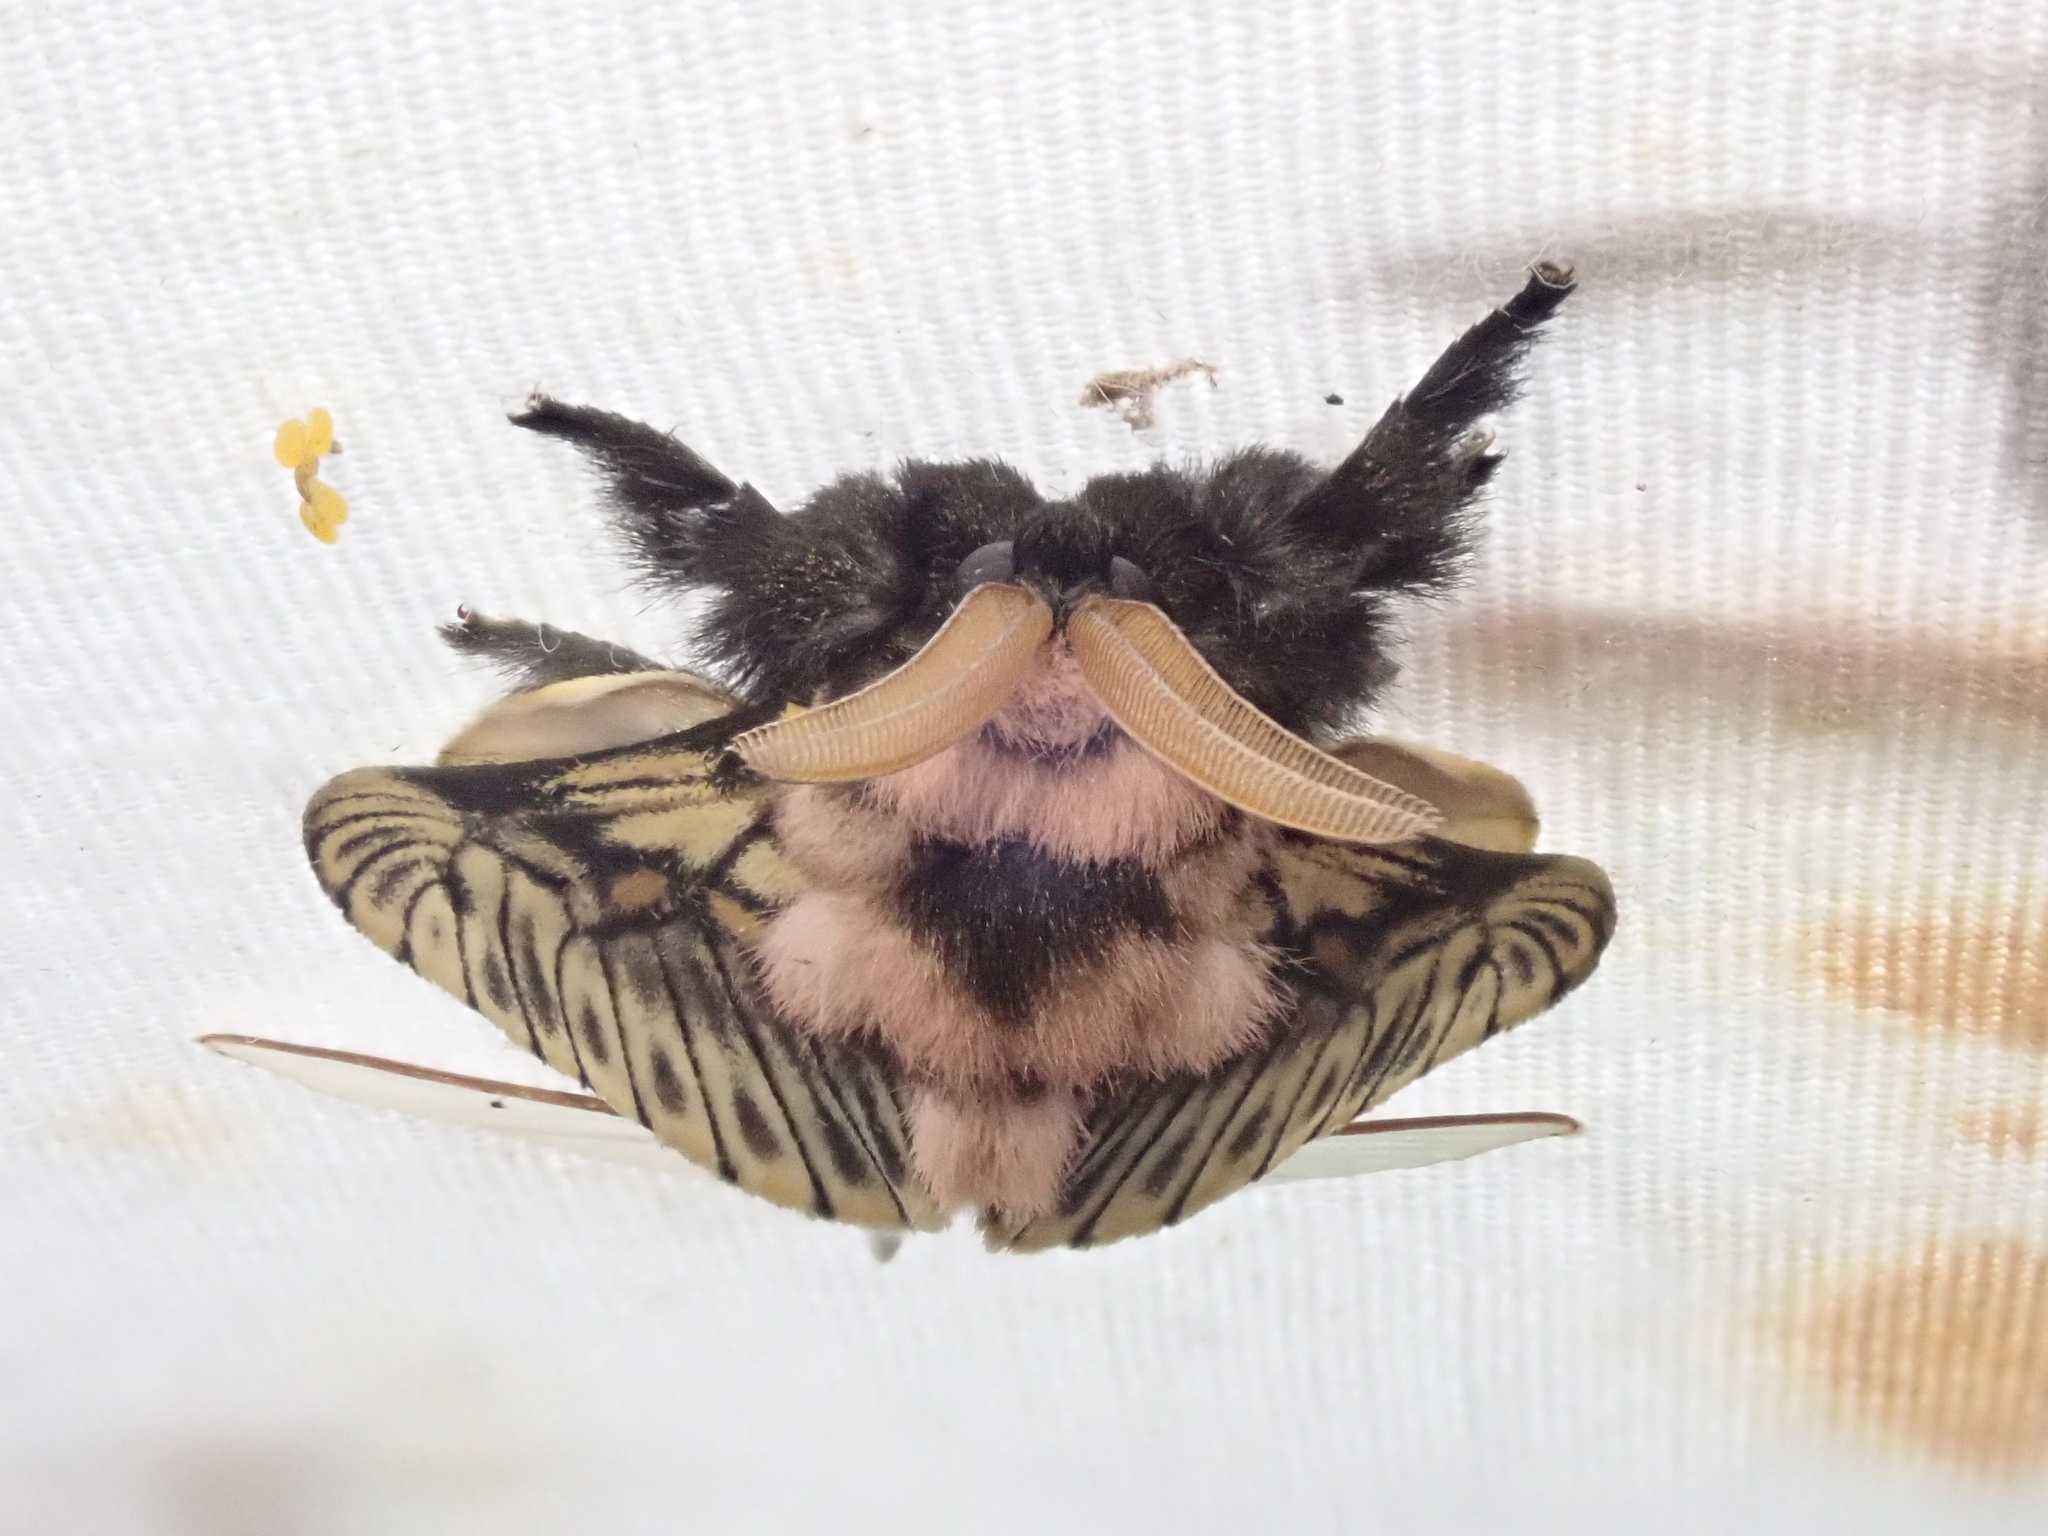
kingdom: Animalia
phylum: Arthropoda
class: Insecta
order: Lepidoptera
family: Megalopygidae
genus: Megalopyge
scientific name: Megalopyge perseae
